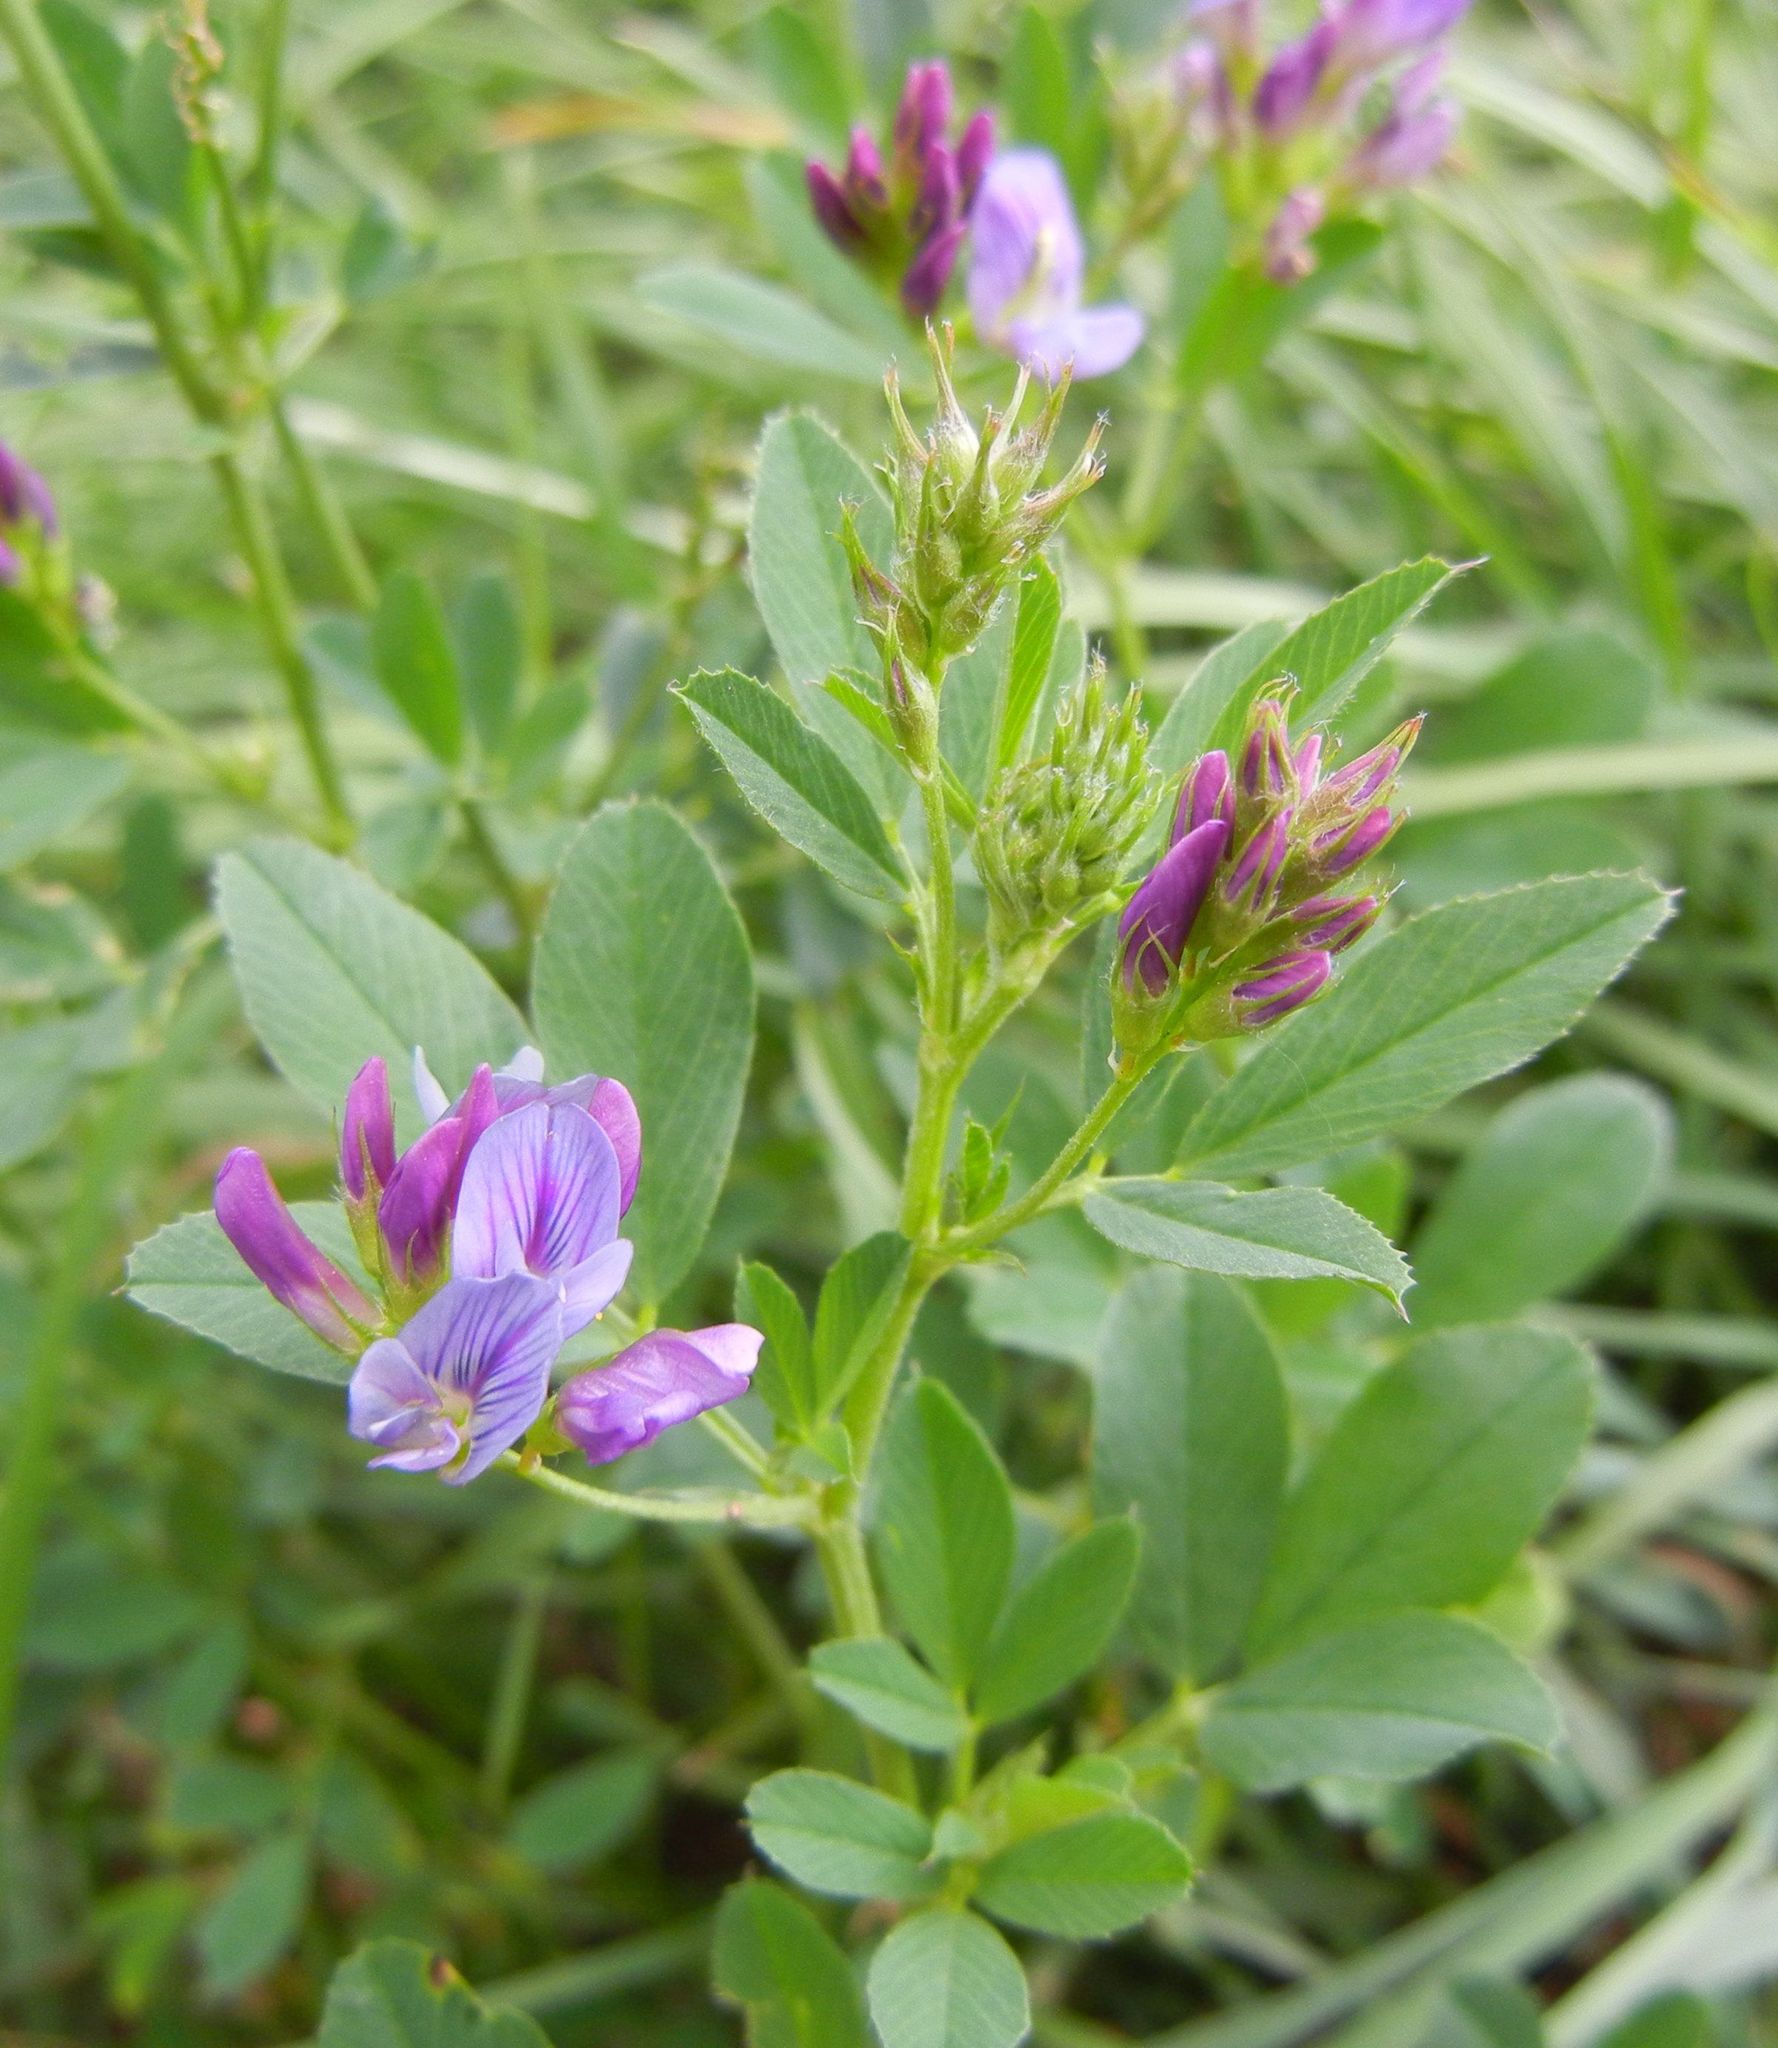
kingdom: Plantae
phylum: Tracheophyta
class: Magnoliopsida
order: Fabales
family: Fabaceae
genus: Medicago
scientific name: Medicago sativa
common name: Alfalfa
